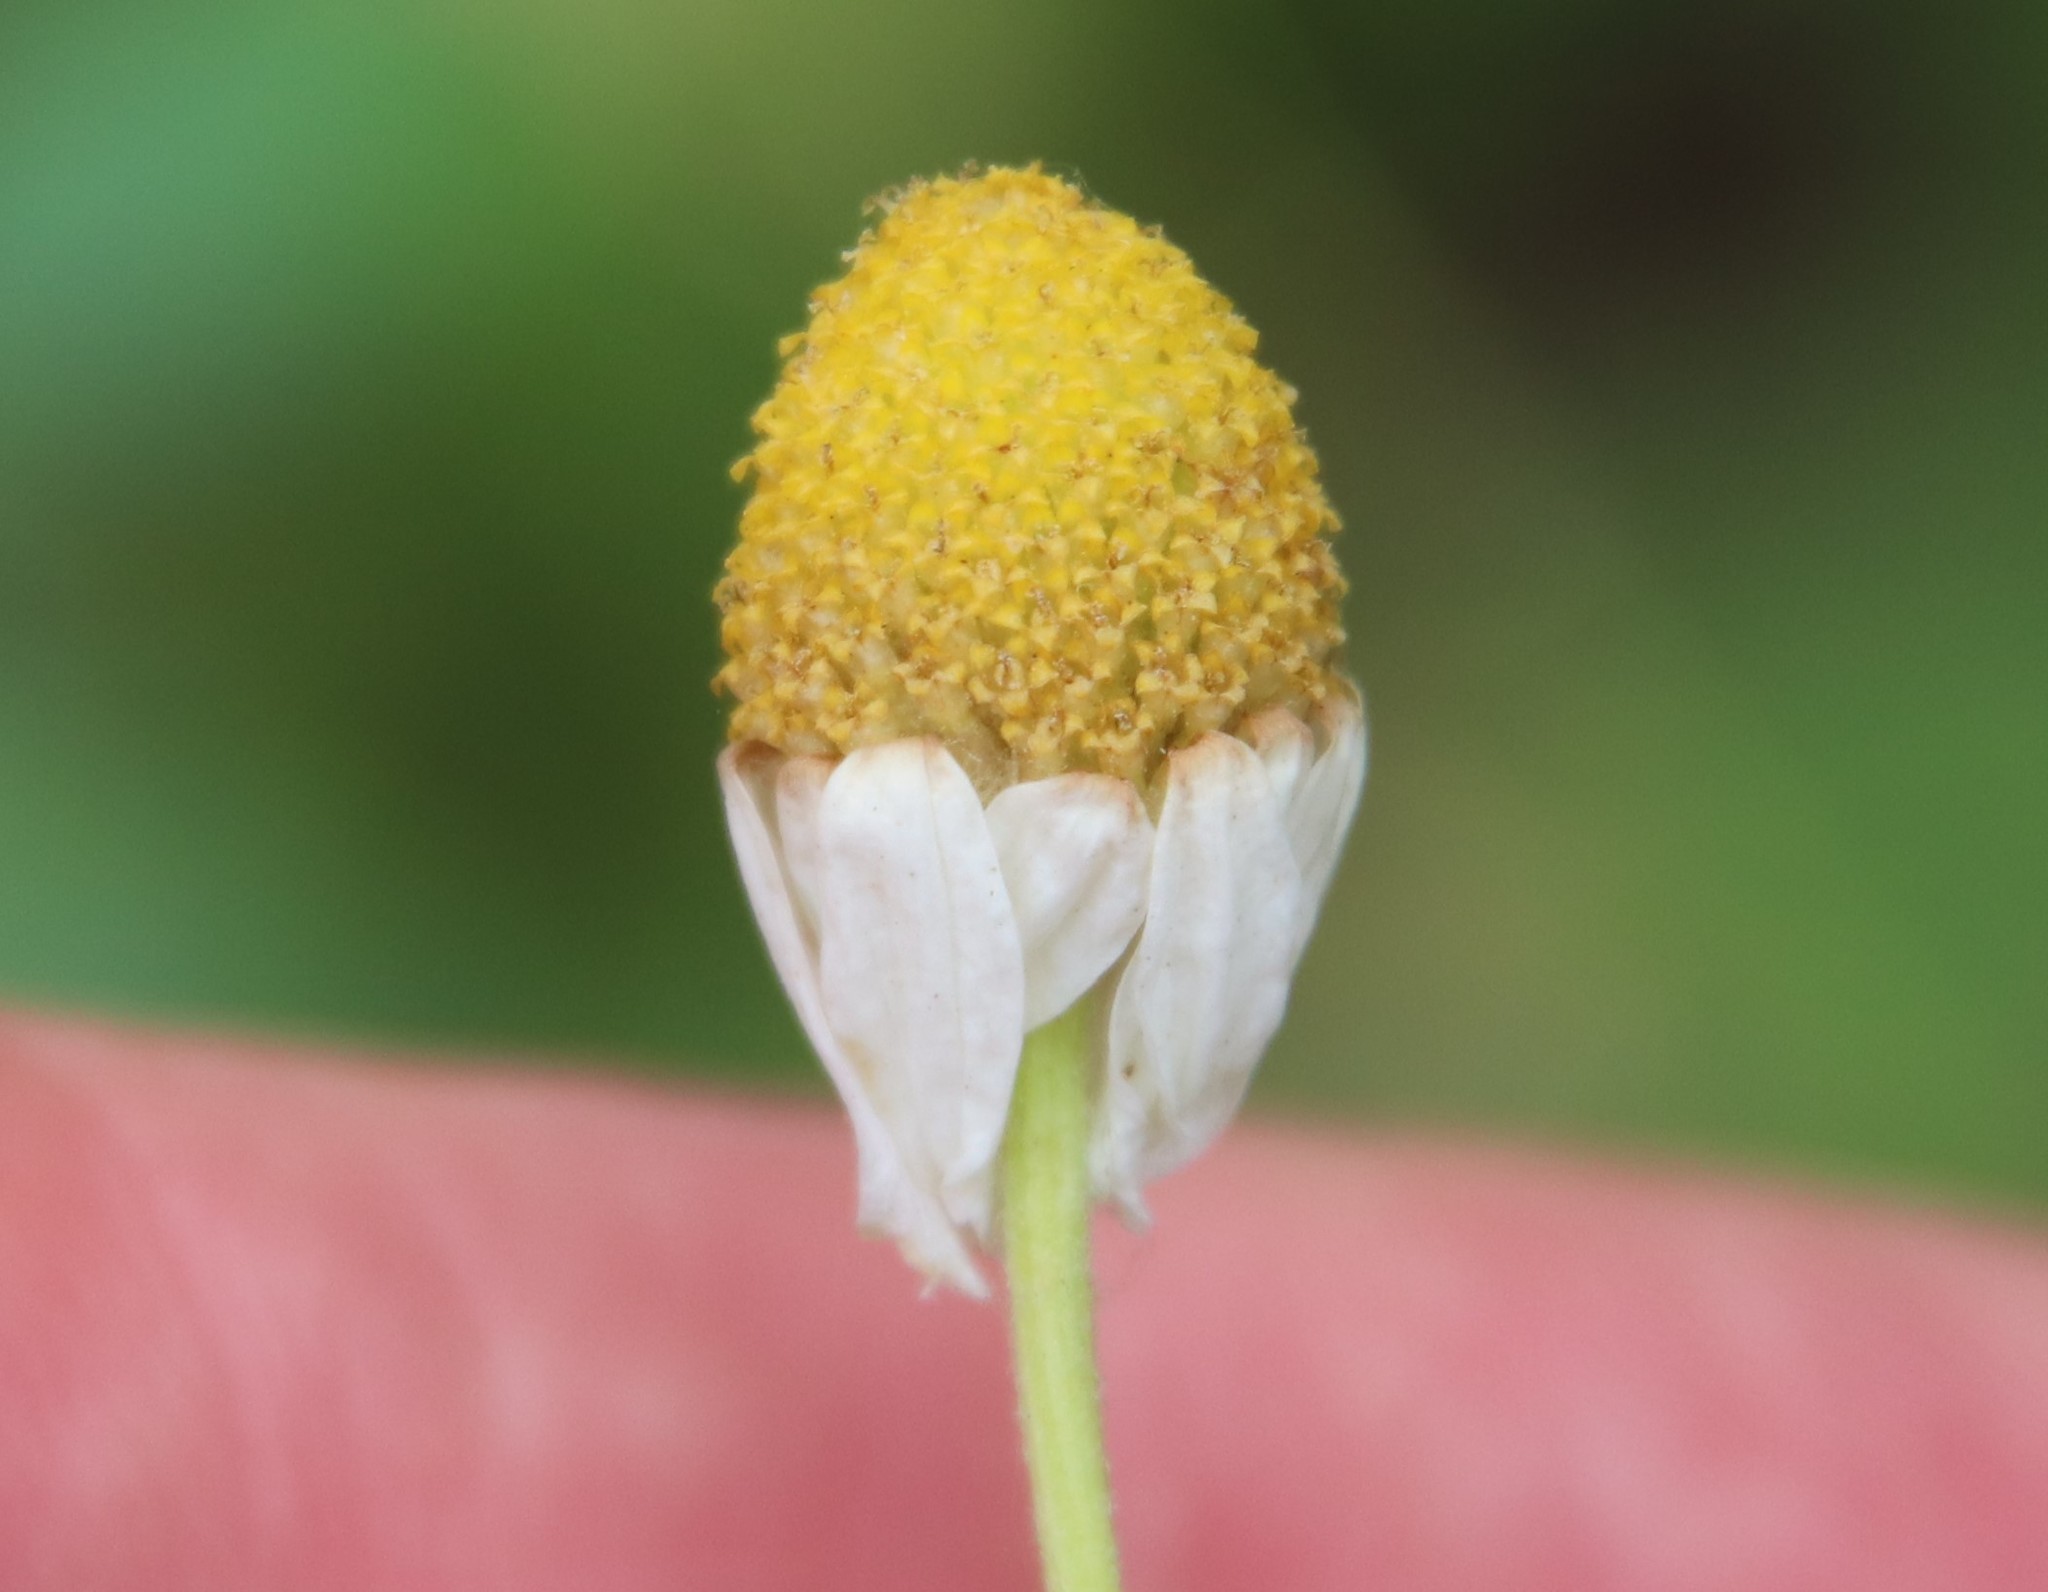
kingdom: Plantae
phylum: Tracheophyta
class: Magnoliopsida
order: Asterales
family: Asteraceae
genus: Anthemis
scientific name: Anthemis cotula
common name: Stinking chamomile
